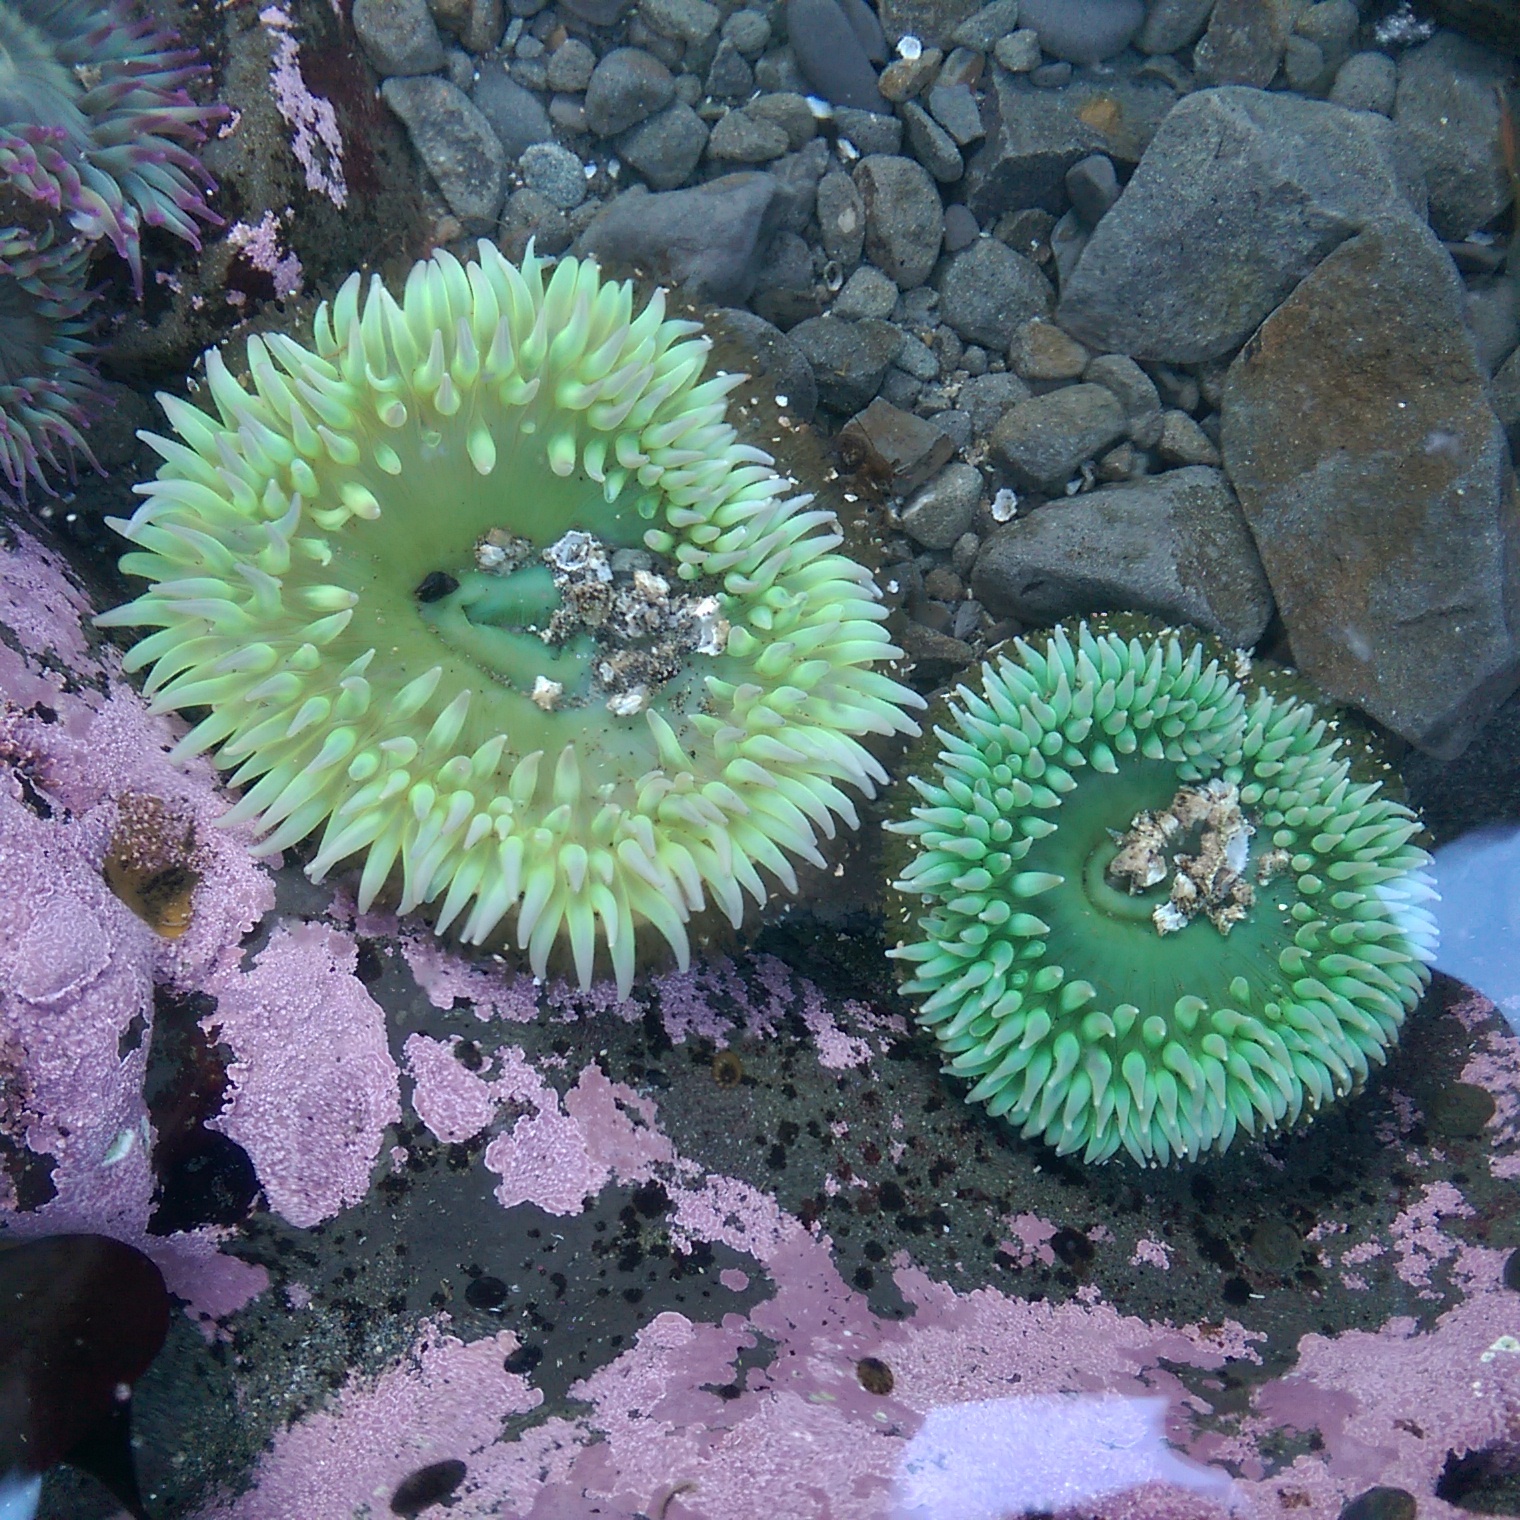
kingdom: Animalia
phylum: Cnidaria
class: Anthozoa
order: Actiniaria
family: Actiniidae
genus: Anthopleura
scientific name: Anthopleura xanthogrammica
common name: Giant green anemone
